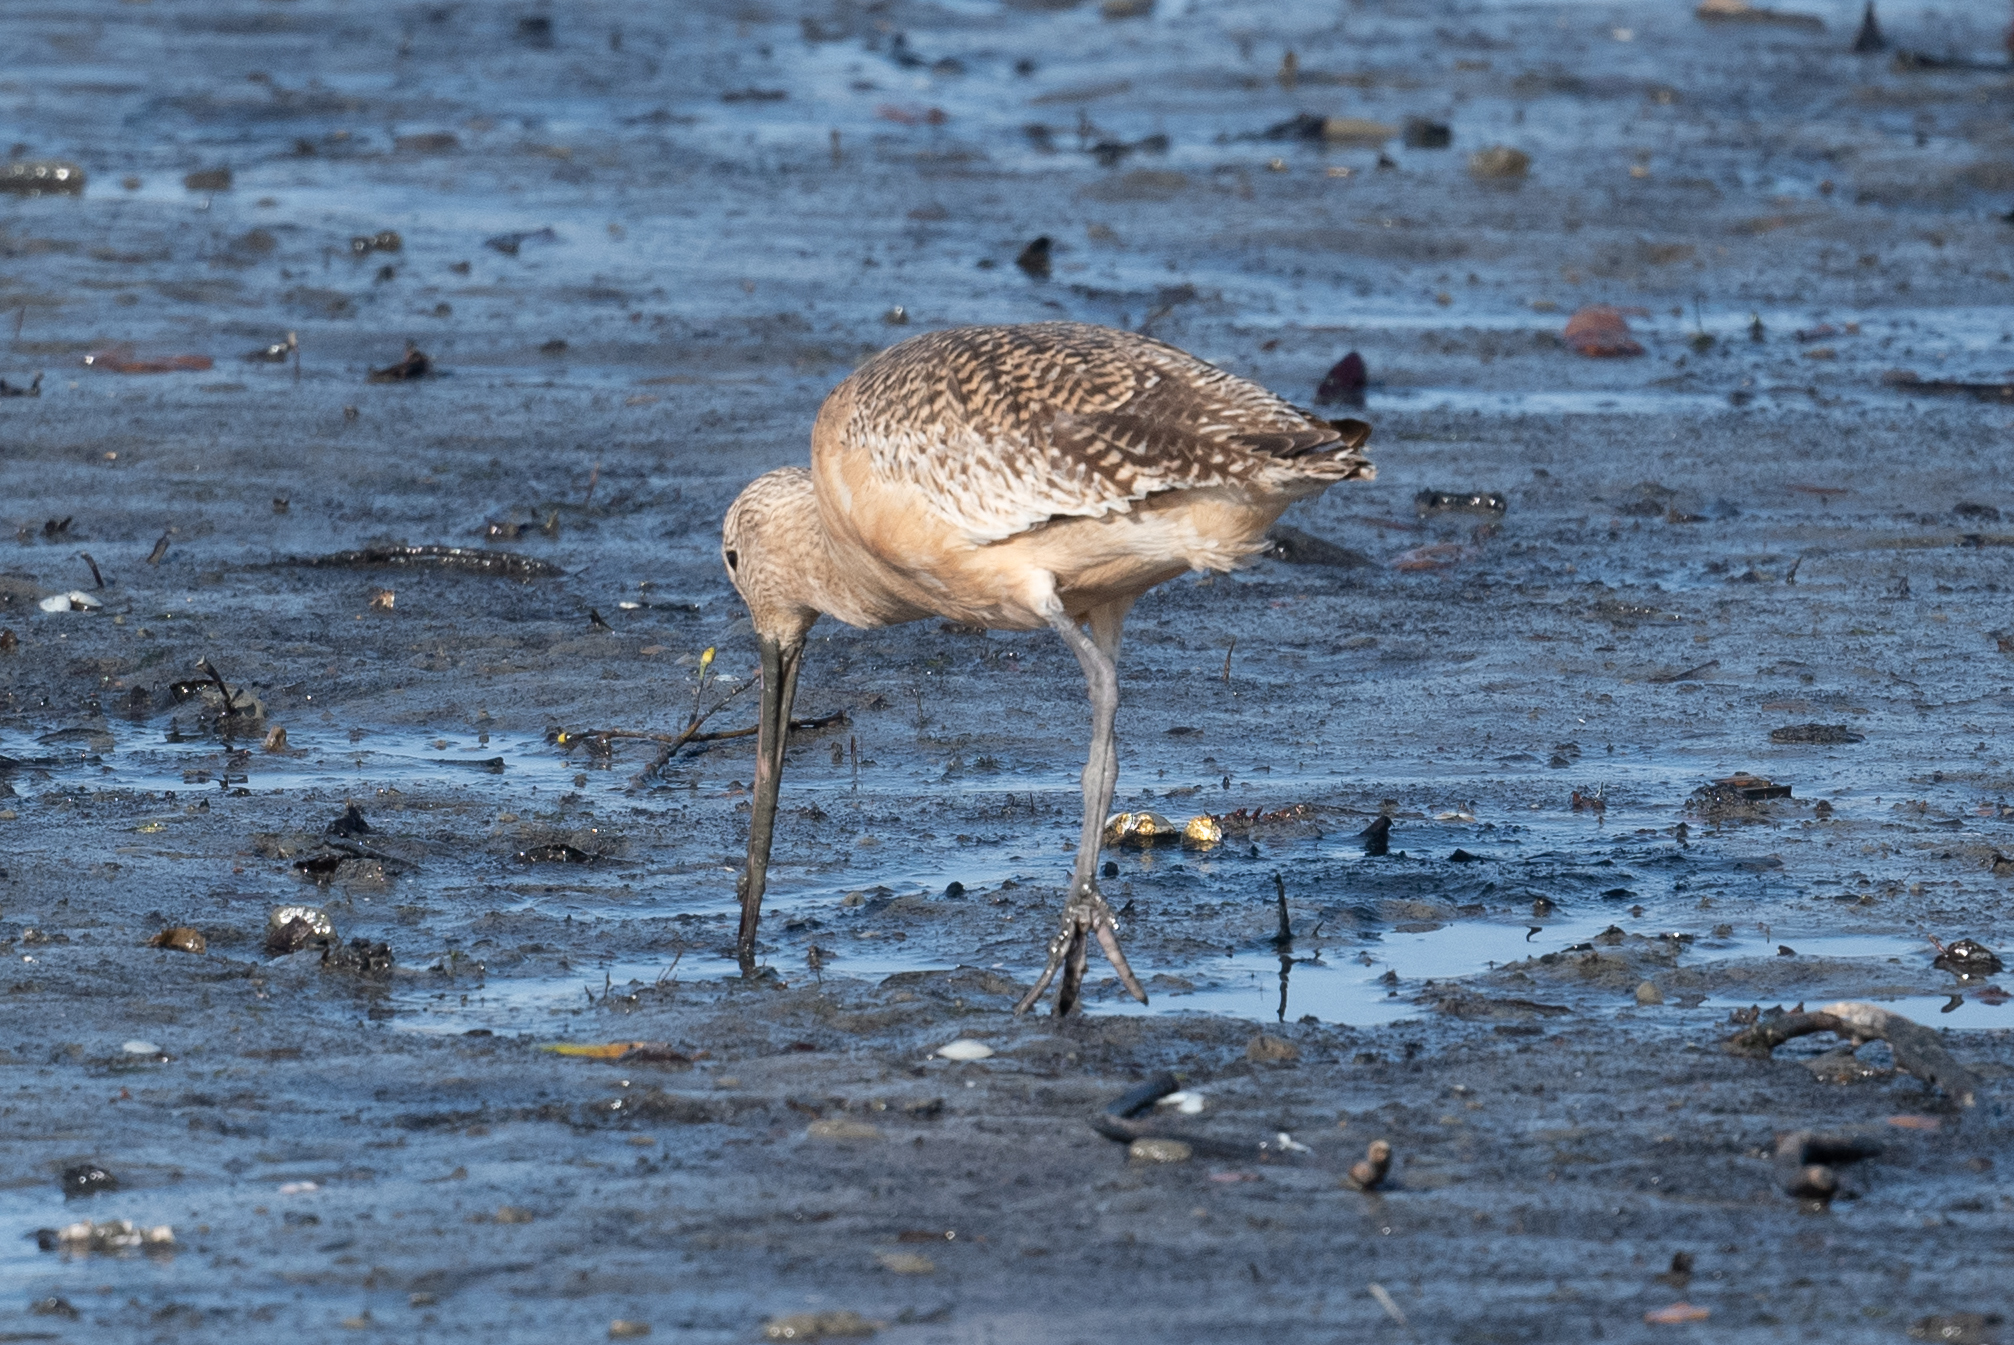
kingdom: Animalia
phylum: Chordata
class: Aves
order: Charadriiformes
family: Scolopacidae
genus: Limosa
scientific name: Limosa fedoa
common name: Marbled godwit
